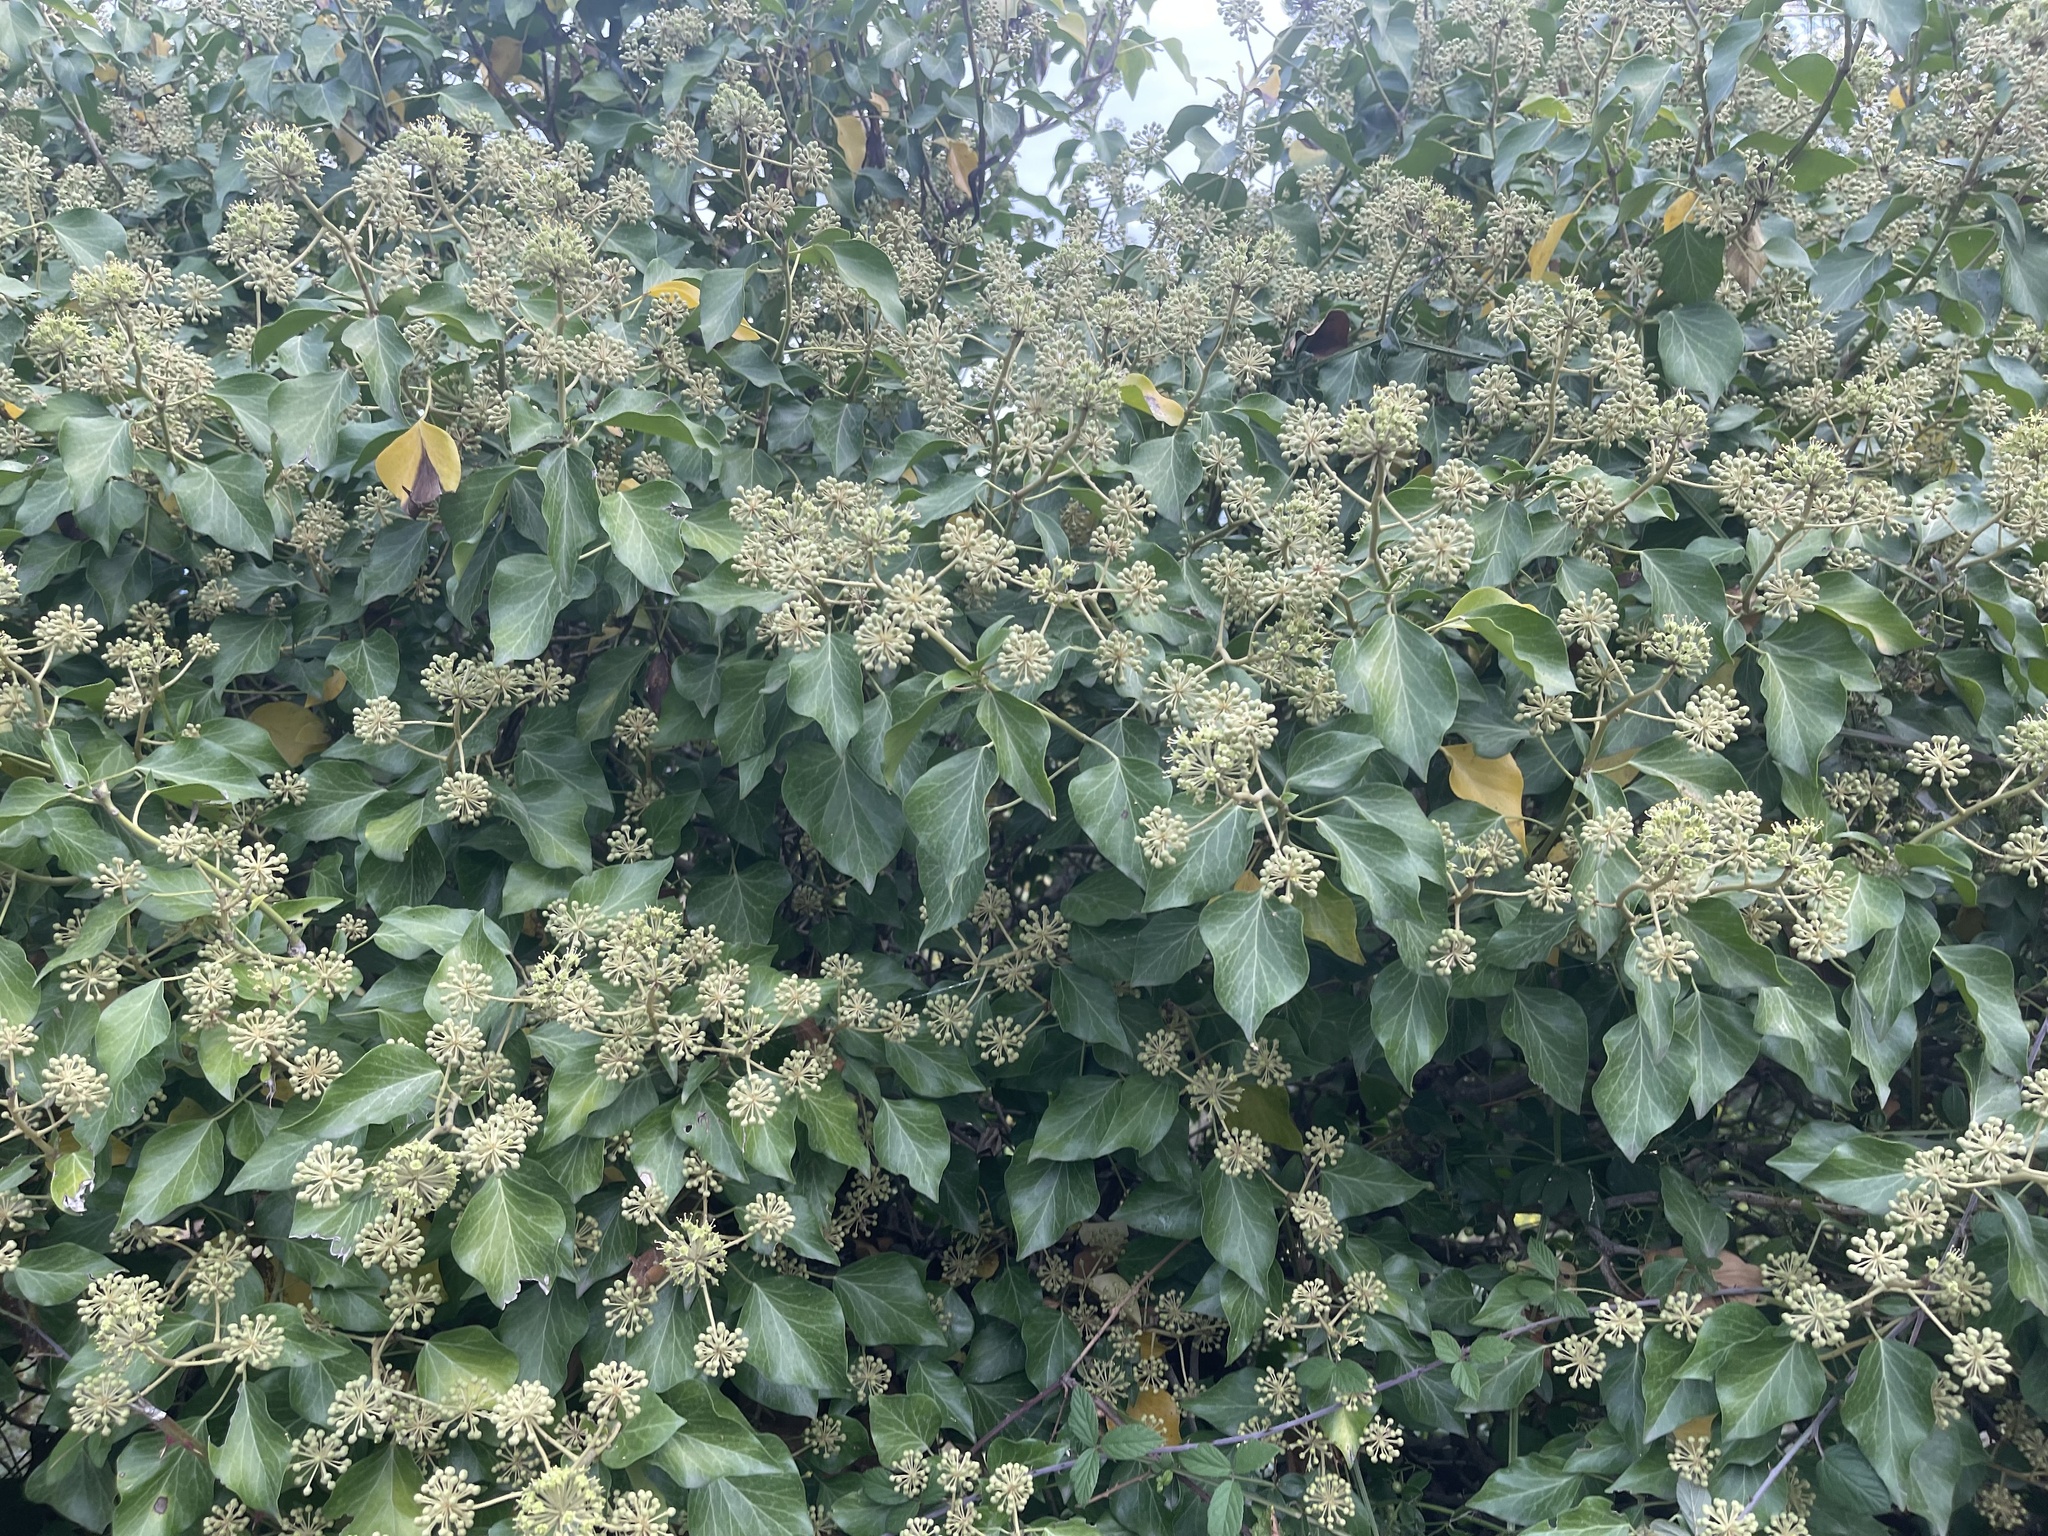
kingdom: Plantae
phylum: Tracheophyta
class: Magnoliopsida
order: Apiales
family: Araliaceae
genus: Hedera
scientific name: Hedera helix
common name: Ivy
